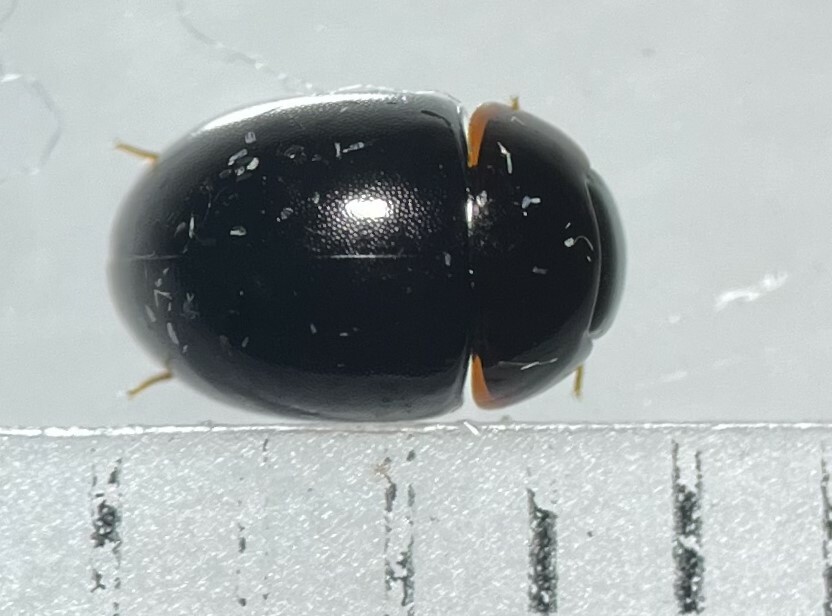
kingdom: Animalia
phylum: Arthropoda
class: Insecta
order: Coleoptera
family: Hydrophilidae
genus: Phaenonotum
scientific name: Phaenonotum exstriatum
